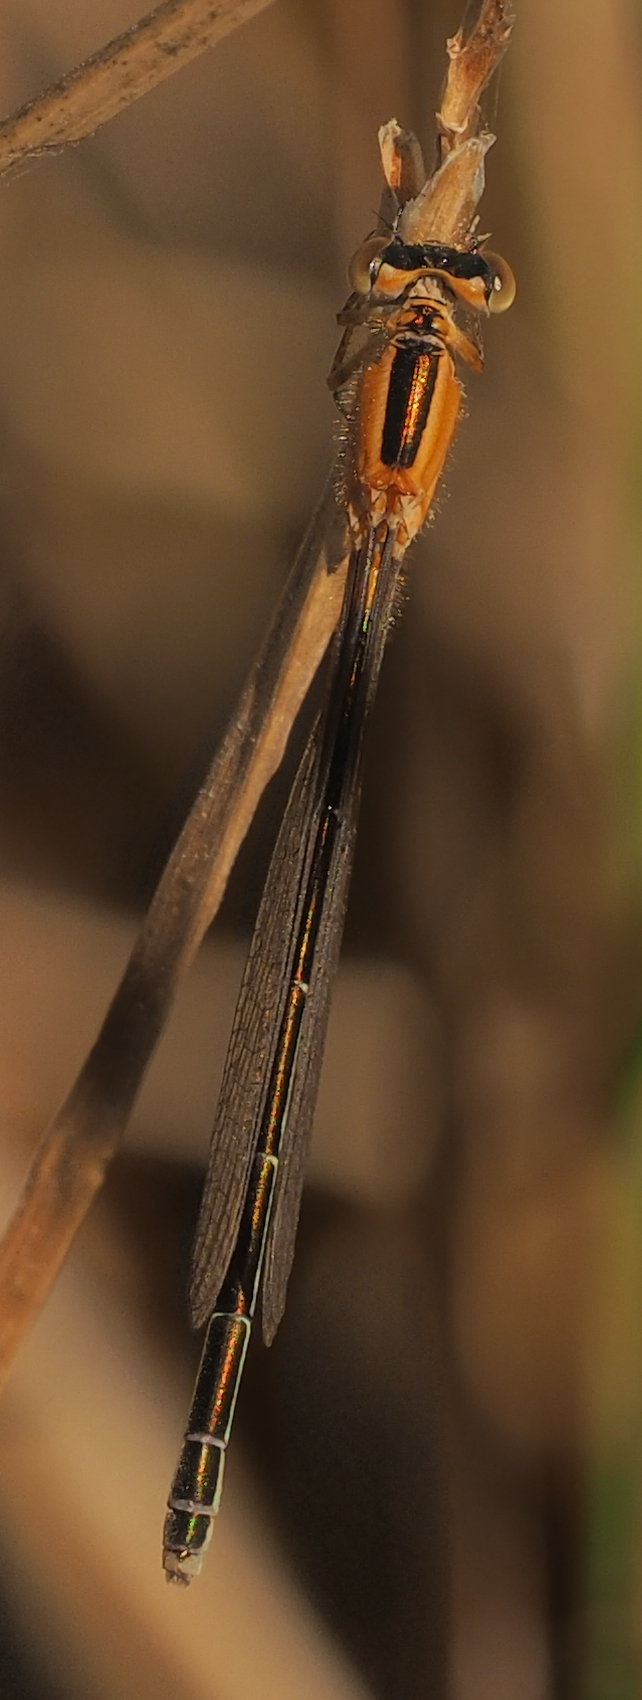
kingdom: Animalia
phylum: Arthropoda
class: Insecta
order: Odonata
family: Coenagrionidae
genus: Ischnura
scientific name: Ischnura senegalensis
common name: Tropical bluetail
